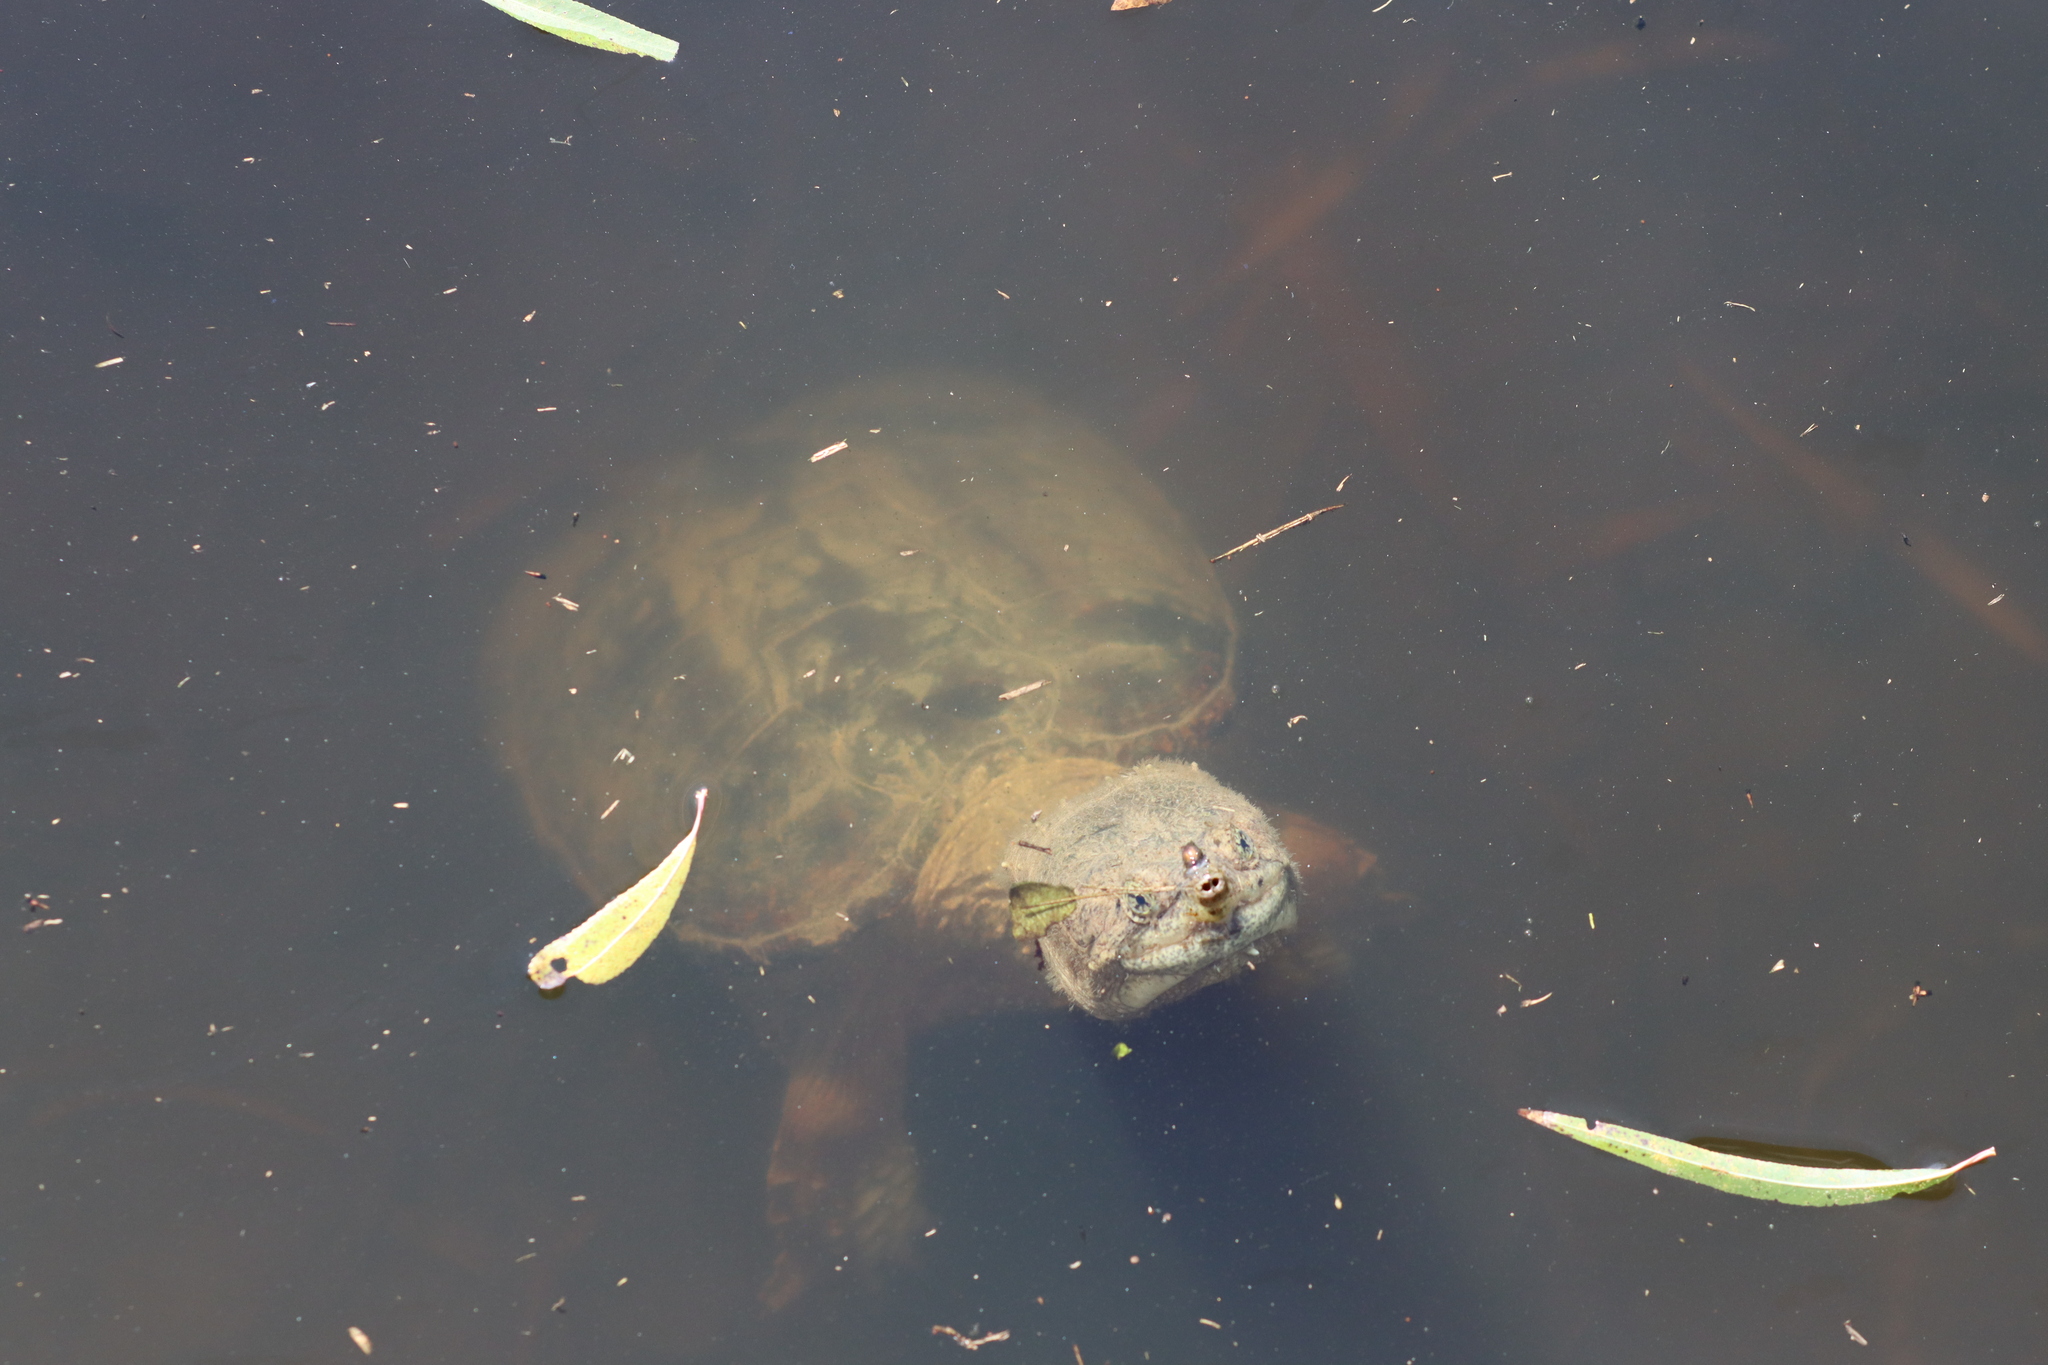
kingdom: Animalia
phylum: Chordata
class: Testudines
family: Chelydridae
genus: Chelydra
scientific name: Chelydra serpentina
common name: Common snapping turtle
